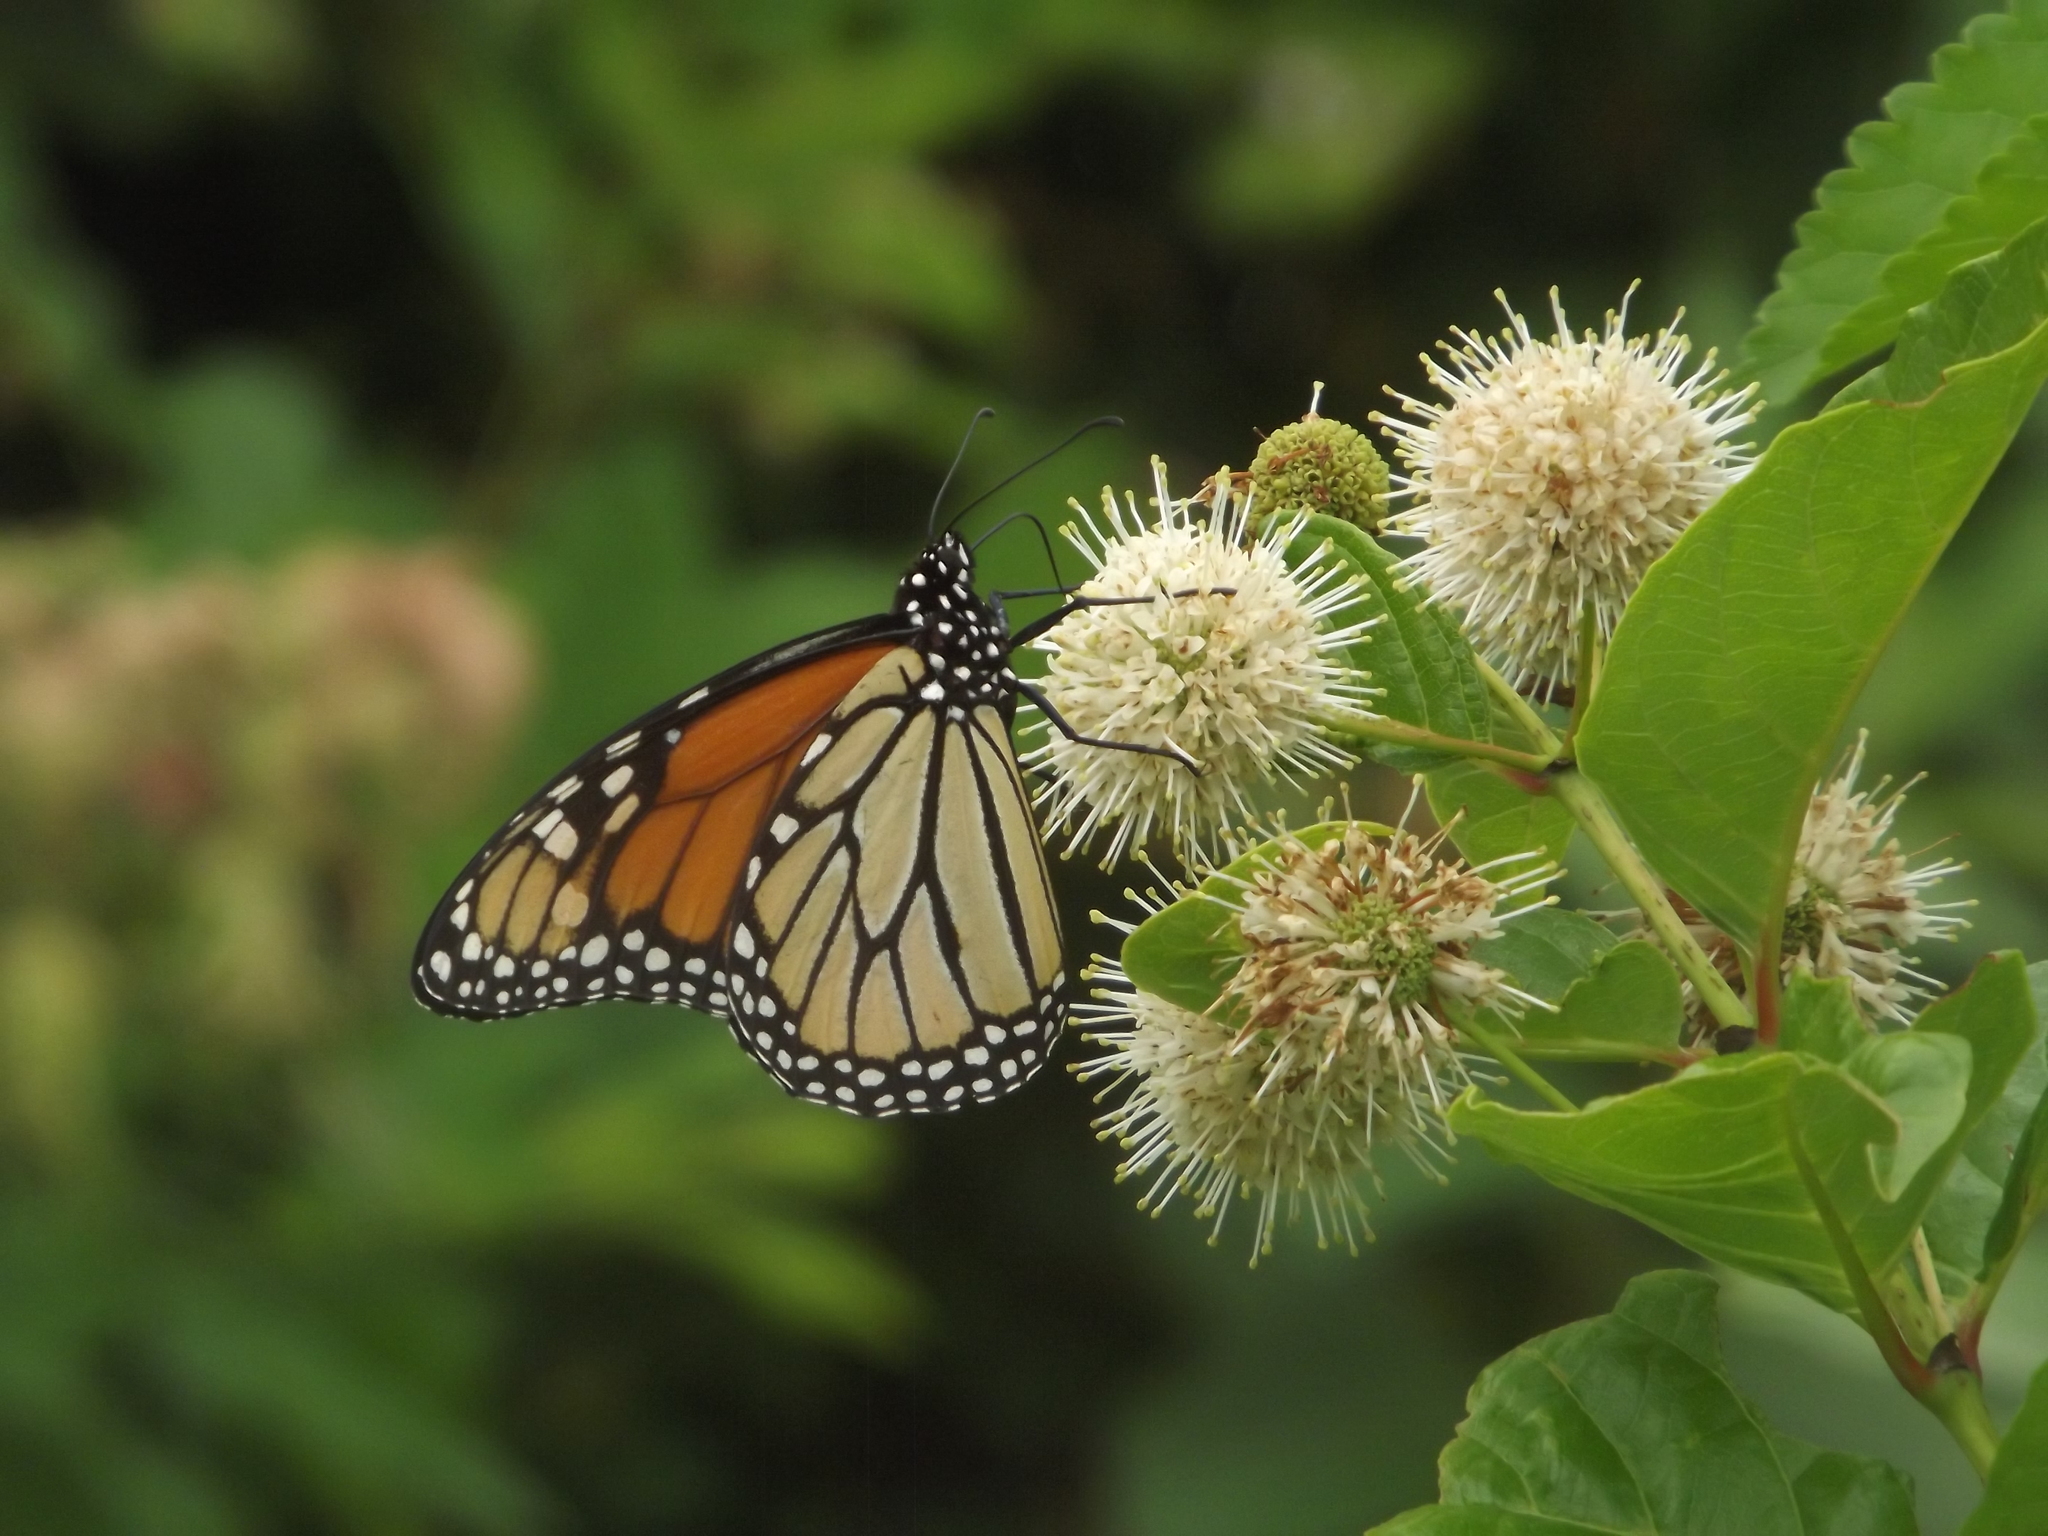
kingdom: Animalia
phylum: Arthropoda
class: Insecta
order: Lepidoptera
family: Nymphalidae
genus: Danaus
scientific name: Danaus plexippus
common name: Monarch
